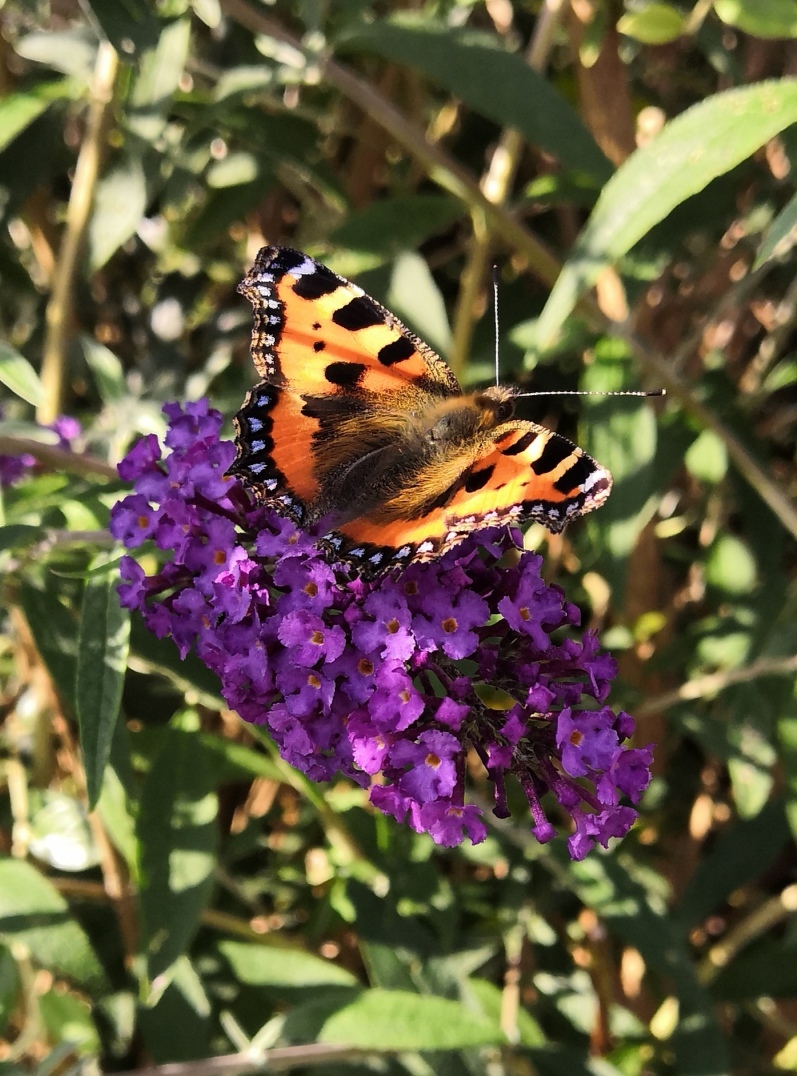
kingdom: Animalia
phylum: Arthropoda
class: Insecta
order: Lepidoptera
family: Nymphalidae
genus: Aglais
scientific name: Aglais urticae
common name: Small tortoiseshell
